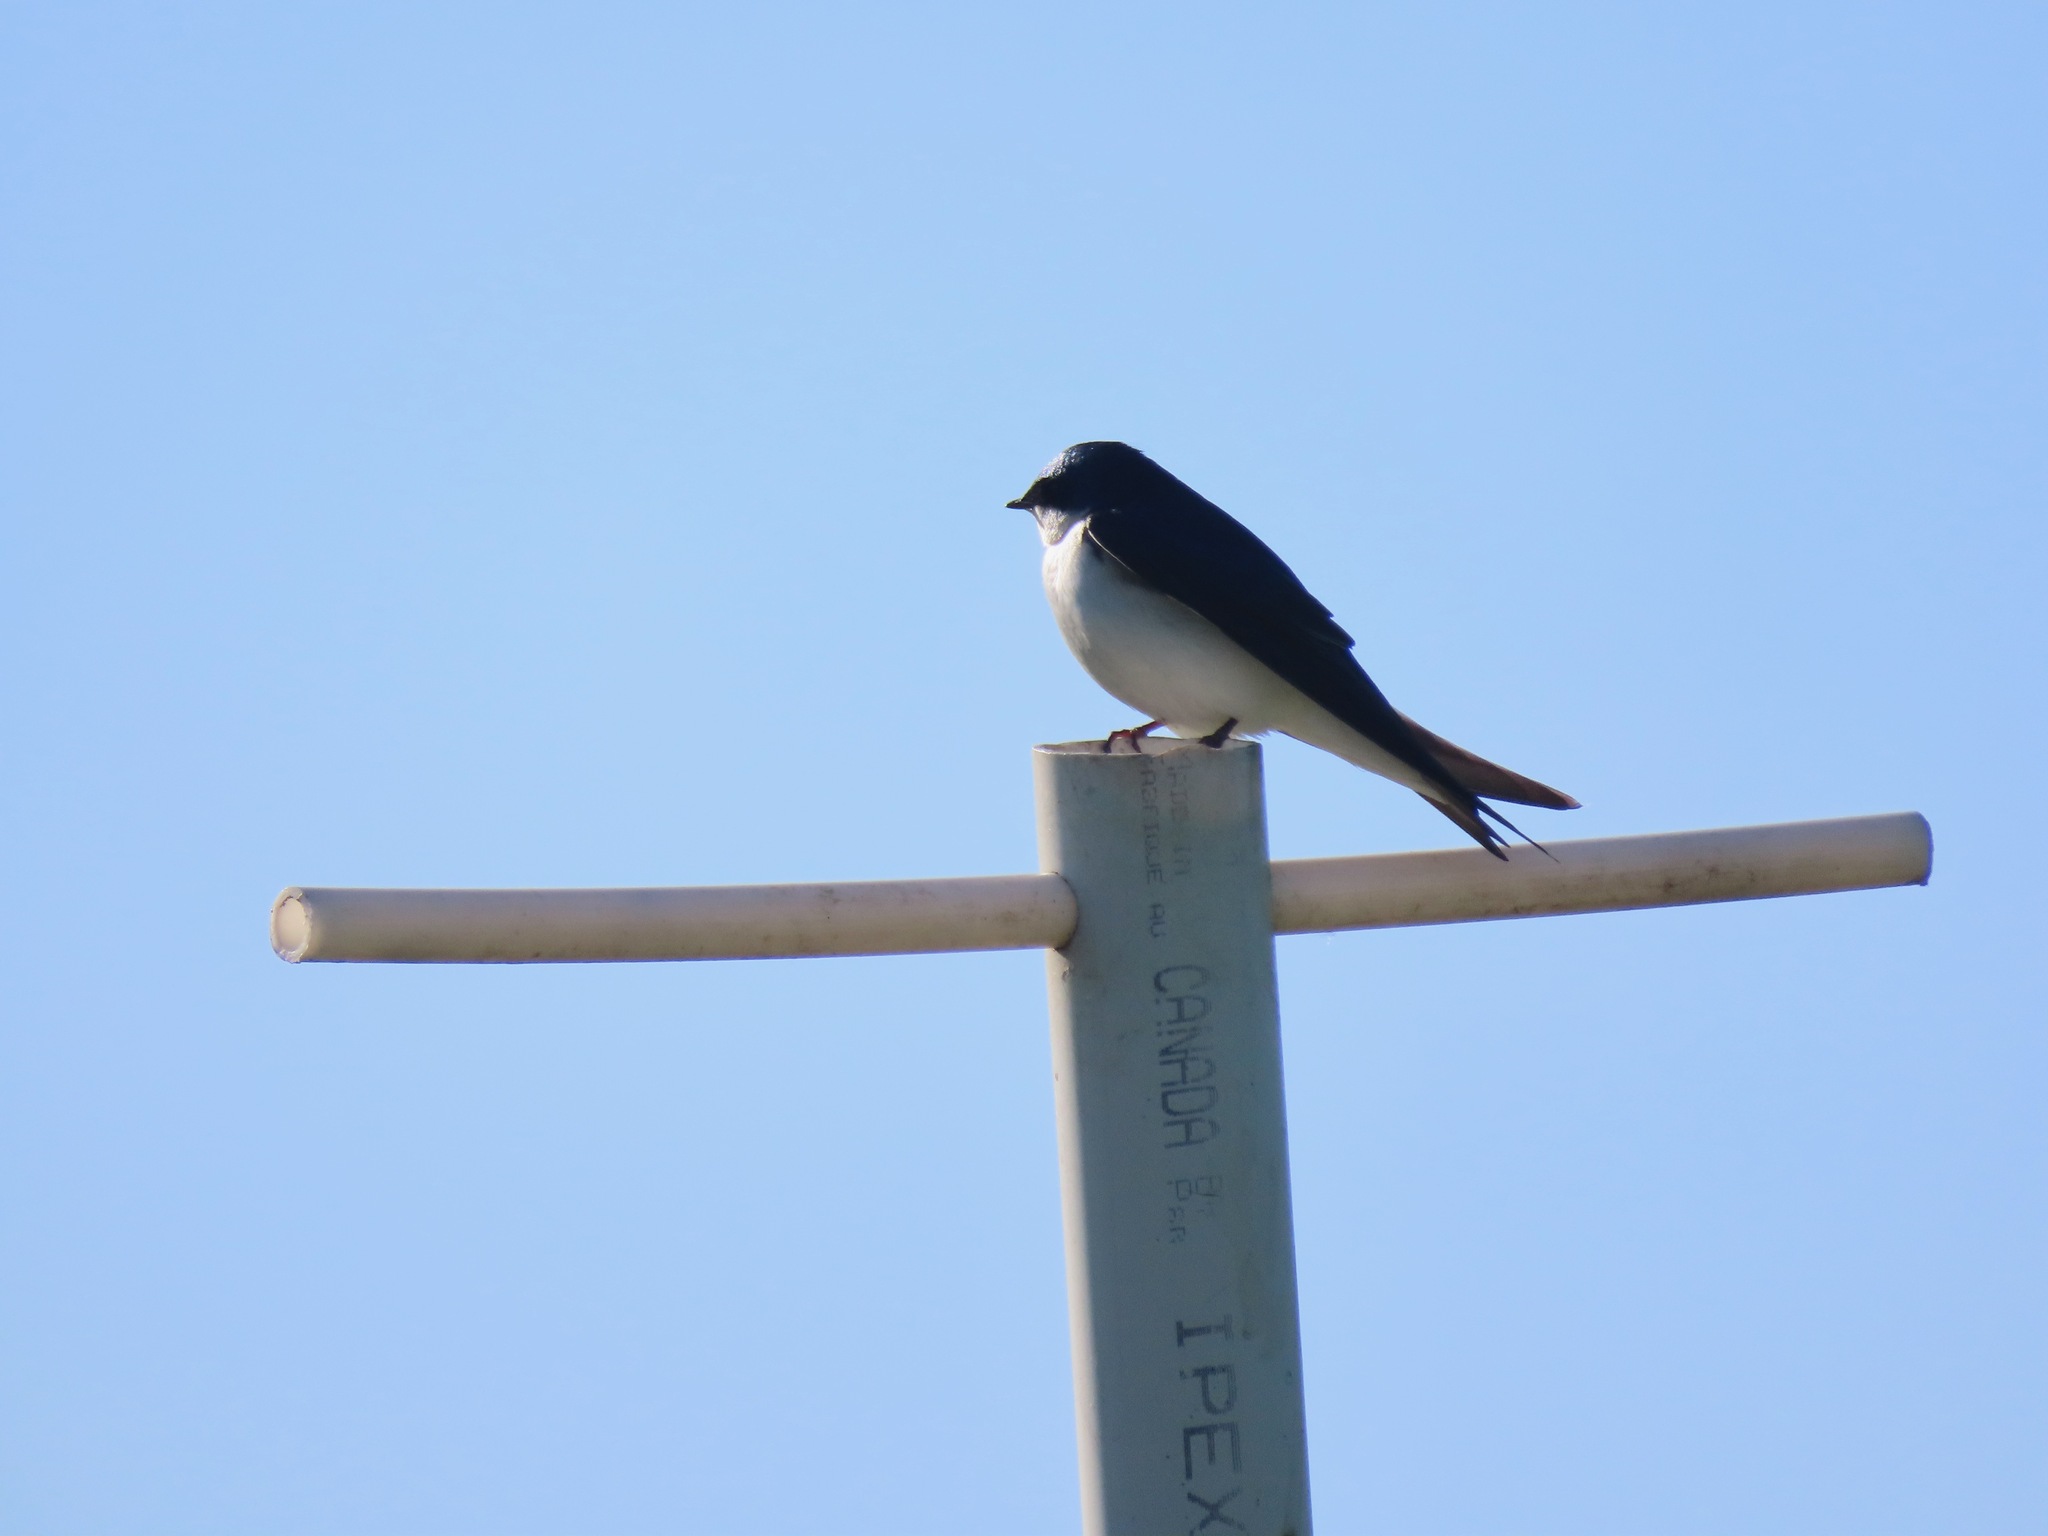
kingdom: Animalia
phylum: Chordata
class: Aves
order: Passeriformes
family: Hirundinidae
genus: Tachycineta
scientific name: Tachycineta bicolor
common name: Tree swallow
